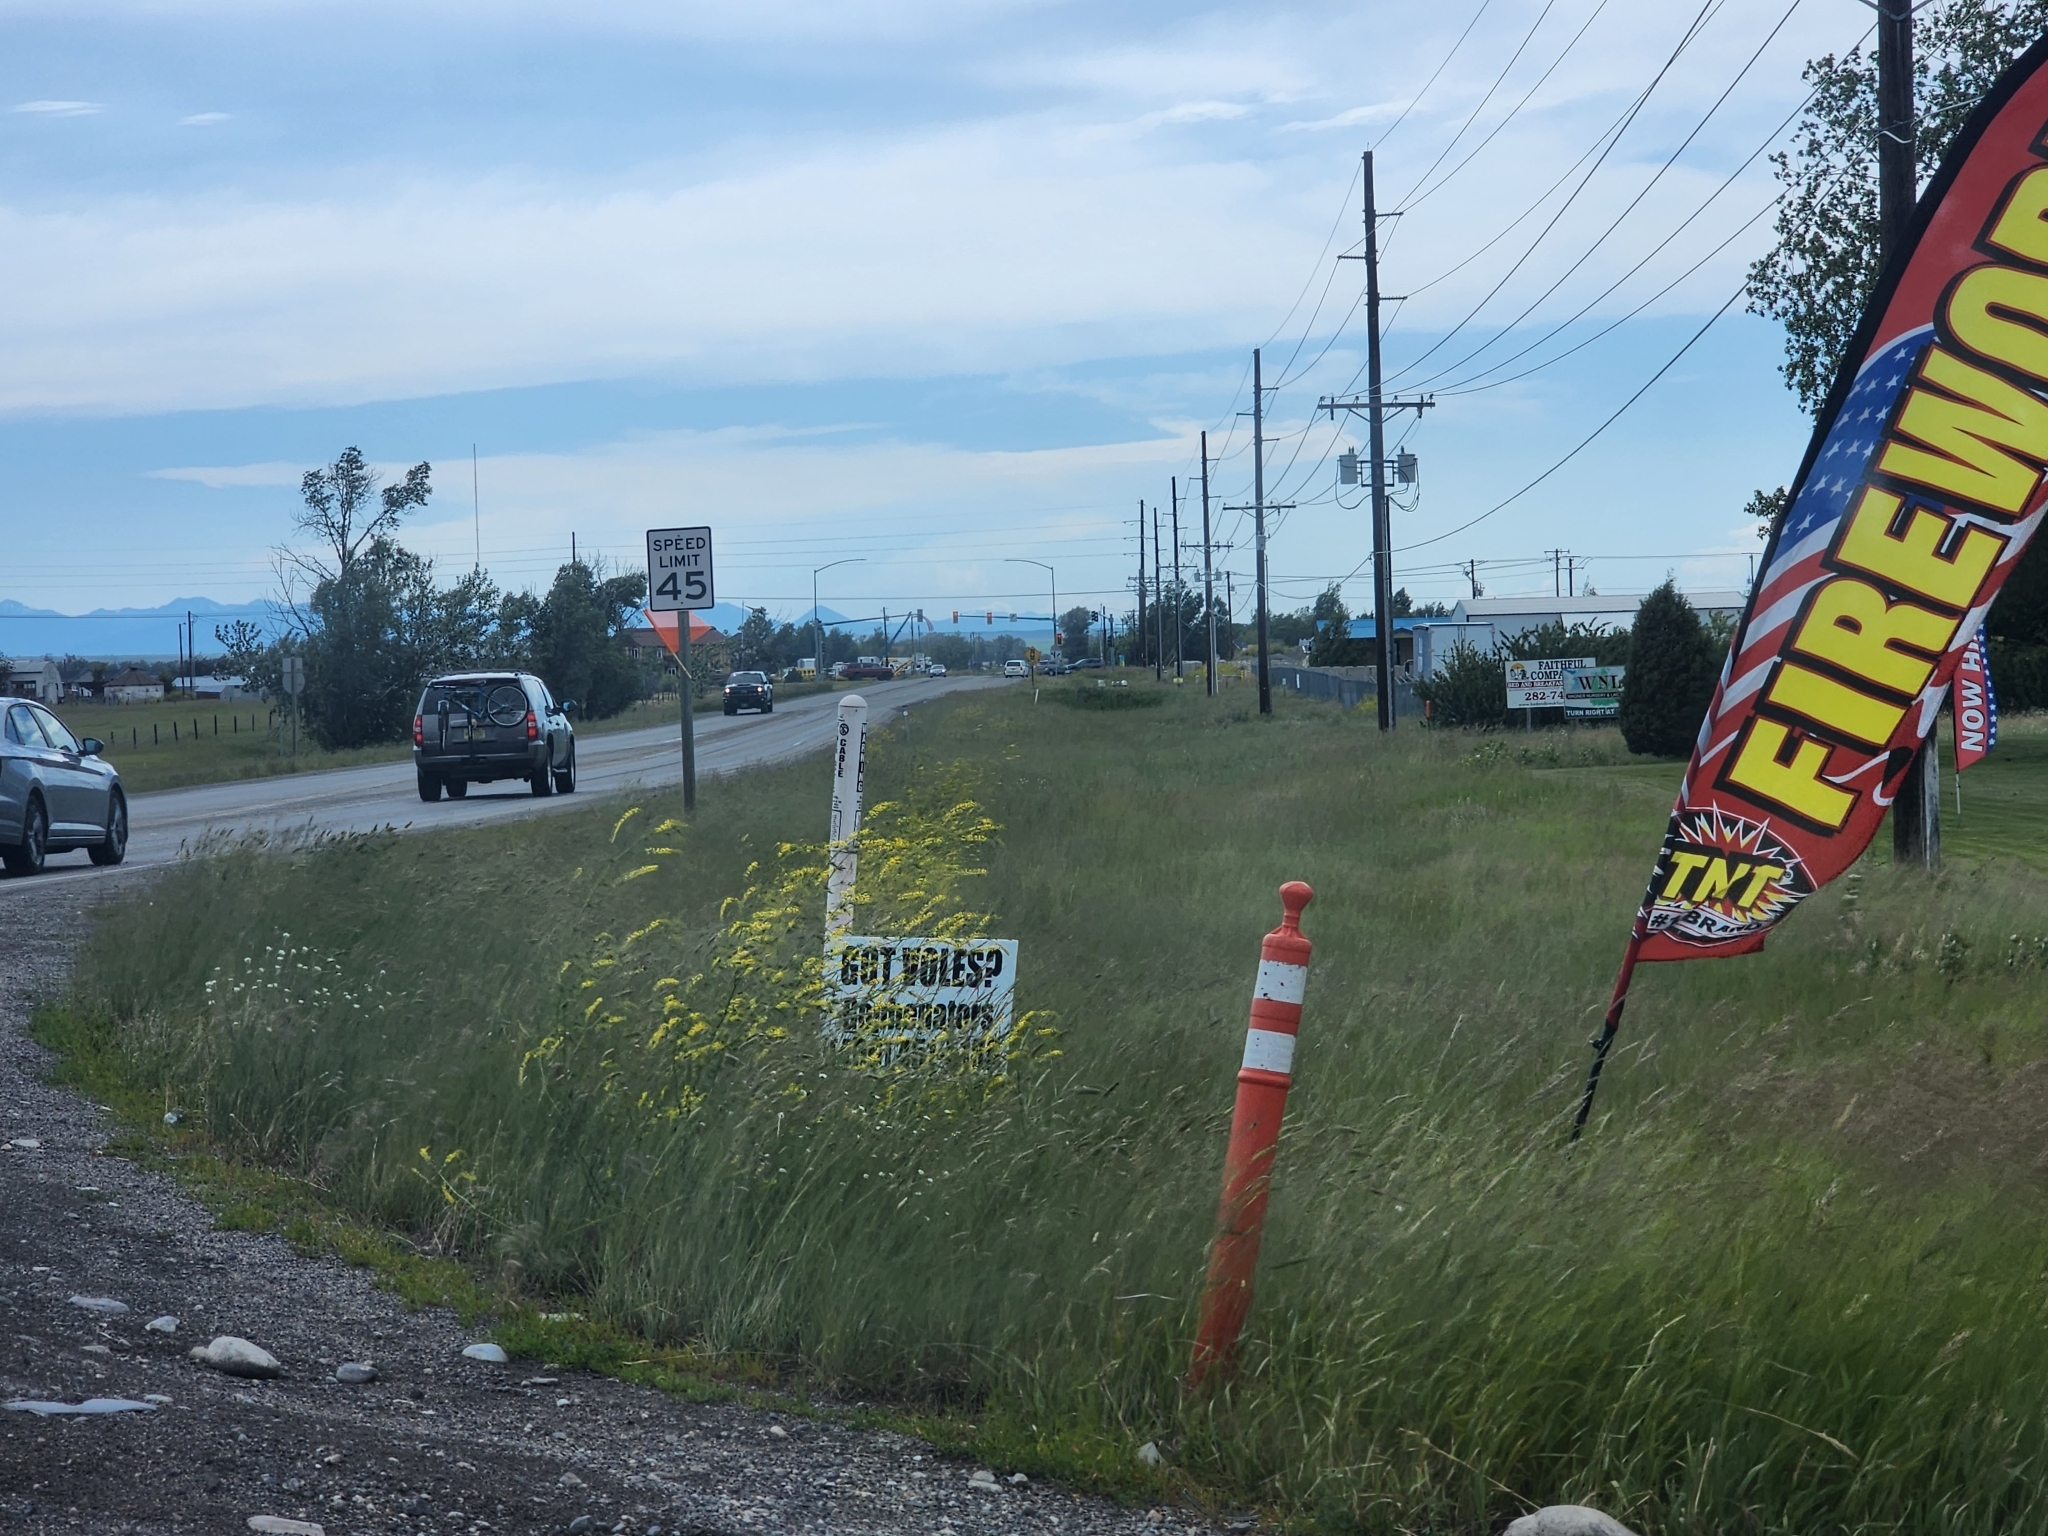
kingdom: Plantae
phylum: Tracheophyta
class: Magnoliopsida
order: Fabales
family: Fabaceae
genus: Melilotus
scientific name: Melilotus officinalis
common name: Sweetclover
